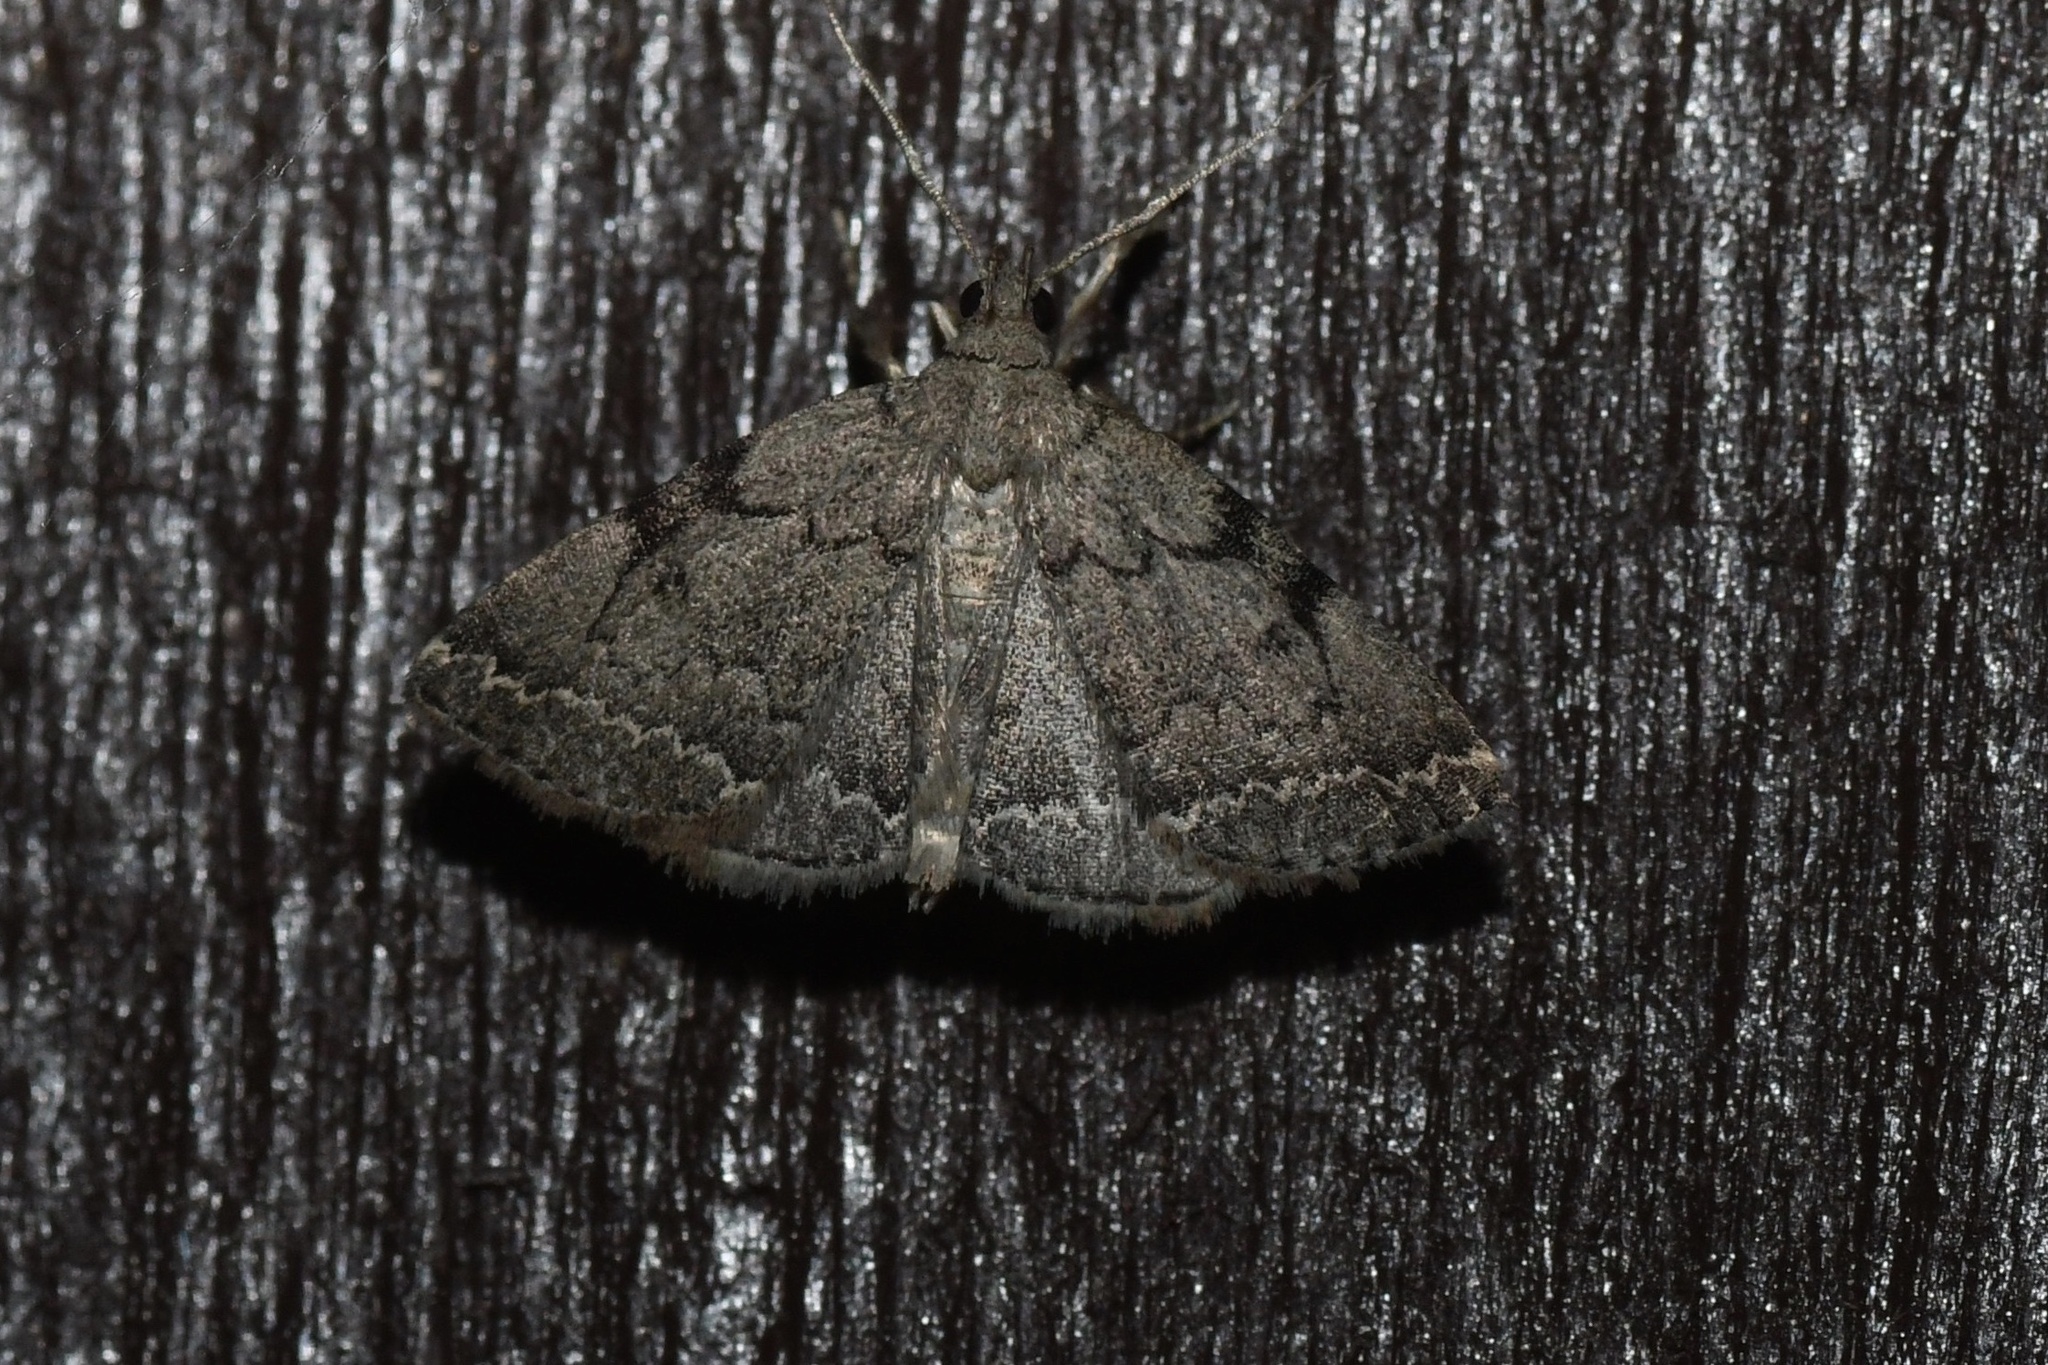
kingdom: Animalia
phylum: Arthropoda
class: Insecta
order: Lepidoptera
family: Erebidae
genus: Zanclognatha
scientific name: Zanclognatha theralis
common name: Flagged fan-foot
